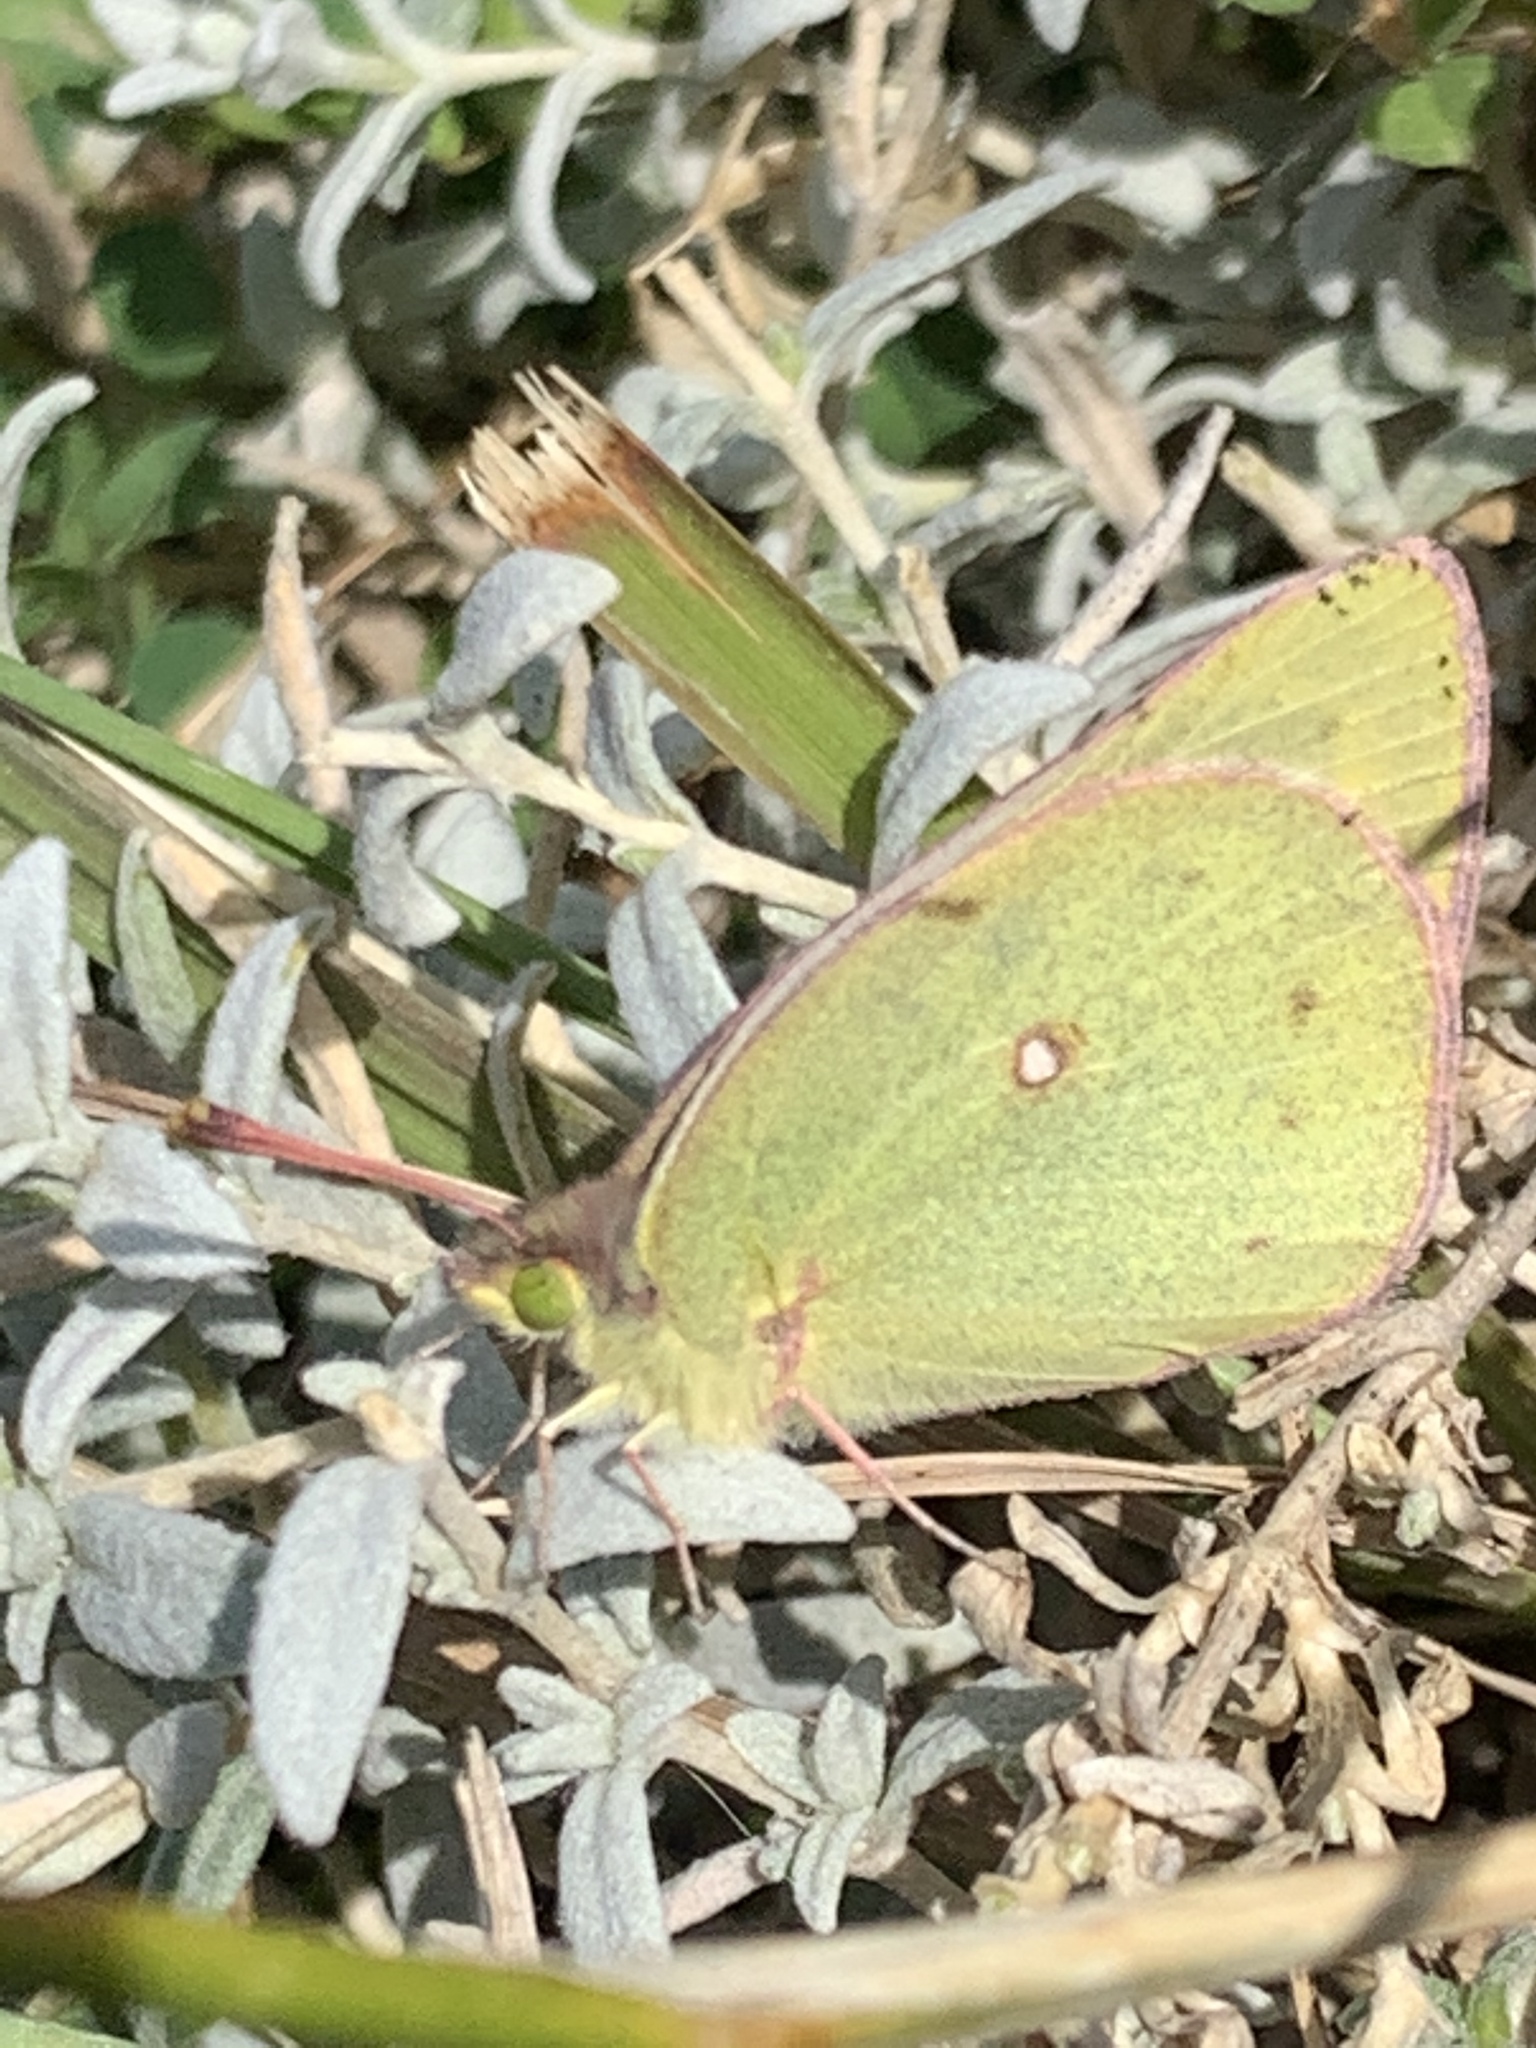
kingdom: Animalia
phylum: Arthropoda
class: Insecta
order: Lepidoptera
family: Pieridae
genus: Colias
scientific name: Colias philodice
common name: Clouded sulphur
